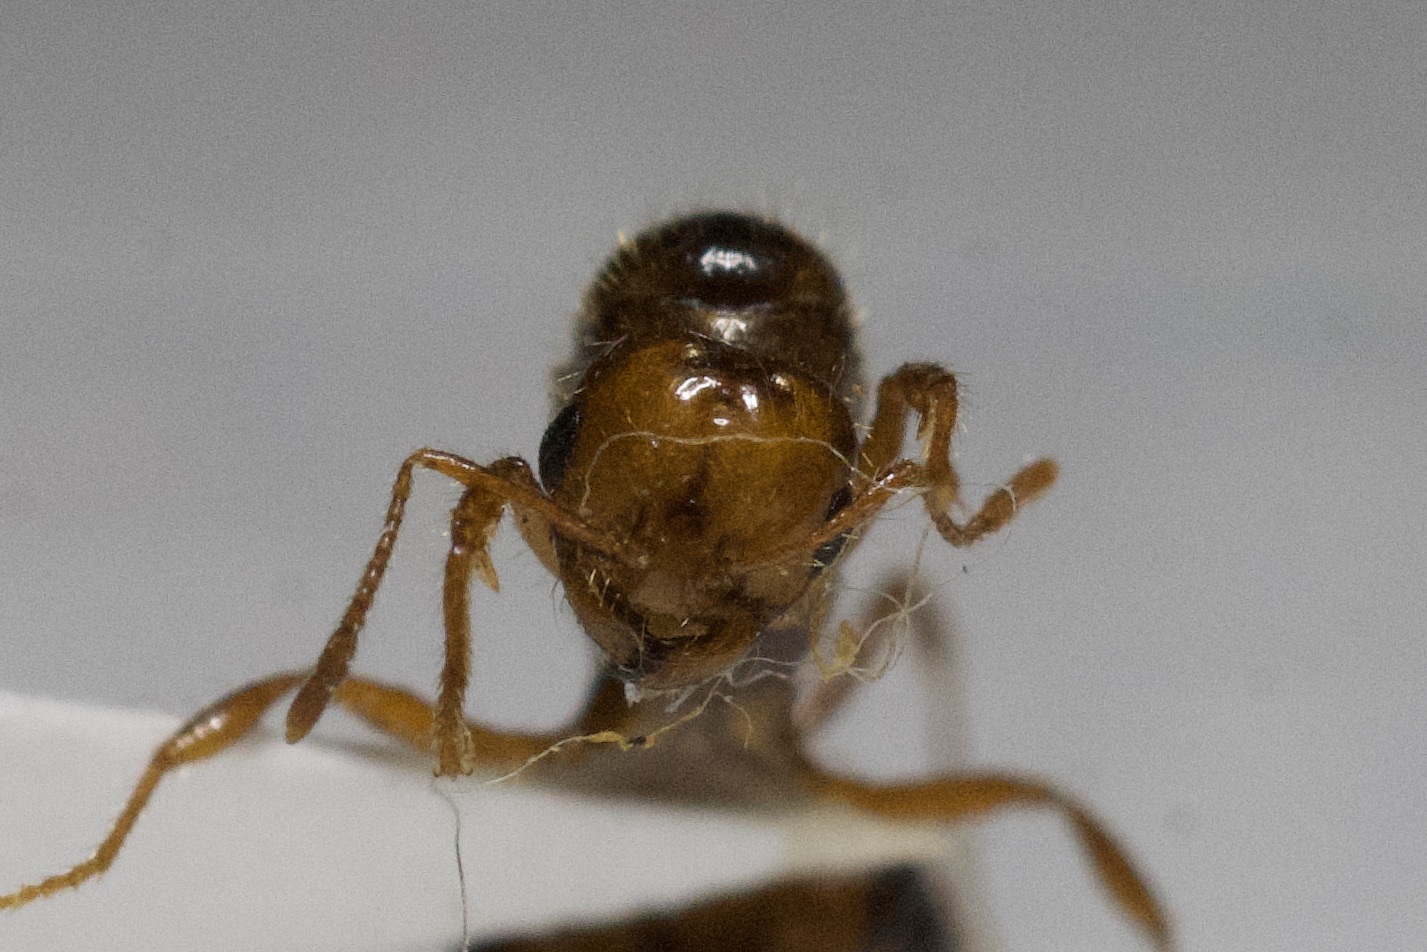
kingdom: Animalia
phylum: Arthropoda
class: Insecta
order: Hymenoptera
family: Formicidae
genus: Solenopsis
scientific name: Solenopsis invicta
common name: Red imported fire ant
